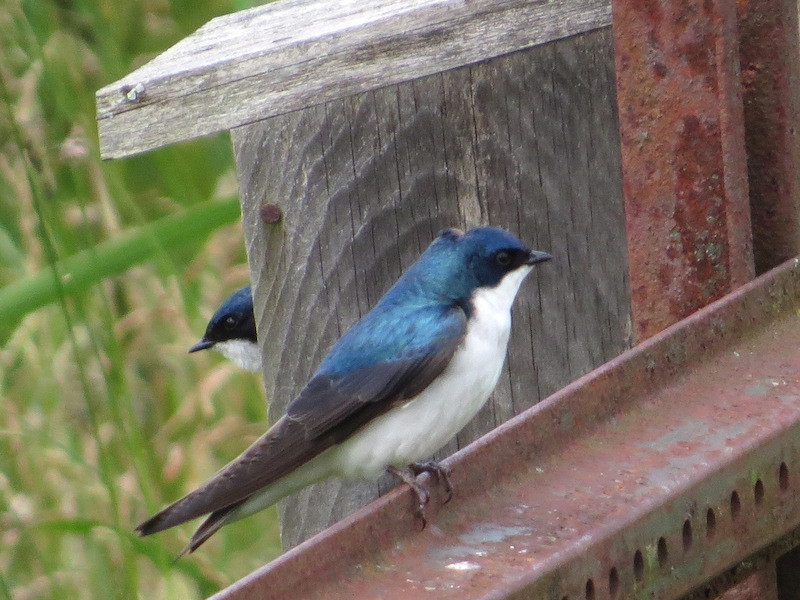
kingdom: Animalia
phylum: Chordata
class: Aves
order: Passeriformes
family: Hirundinidae
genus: Tachycineta
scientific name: Tachycineta bicolor
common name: Tree swallow
